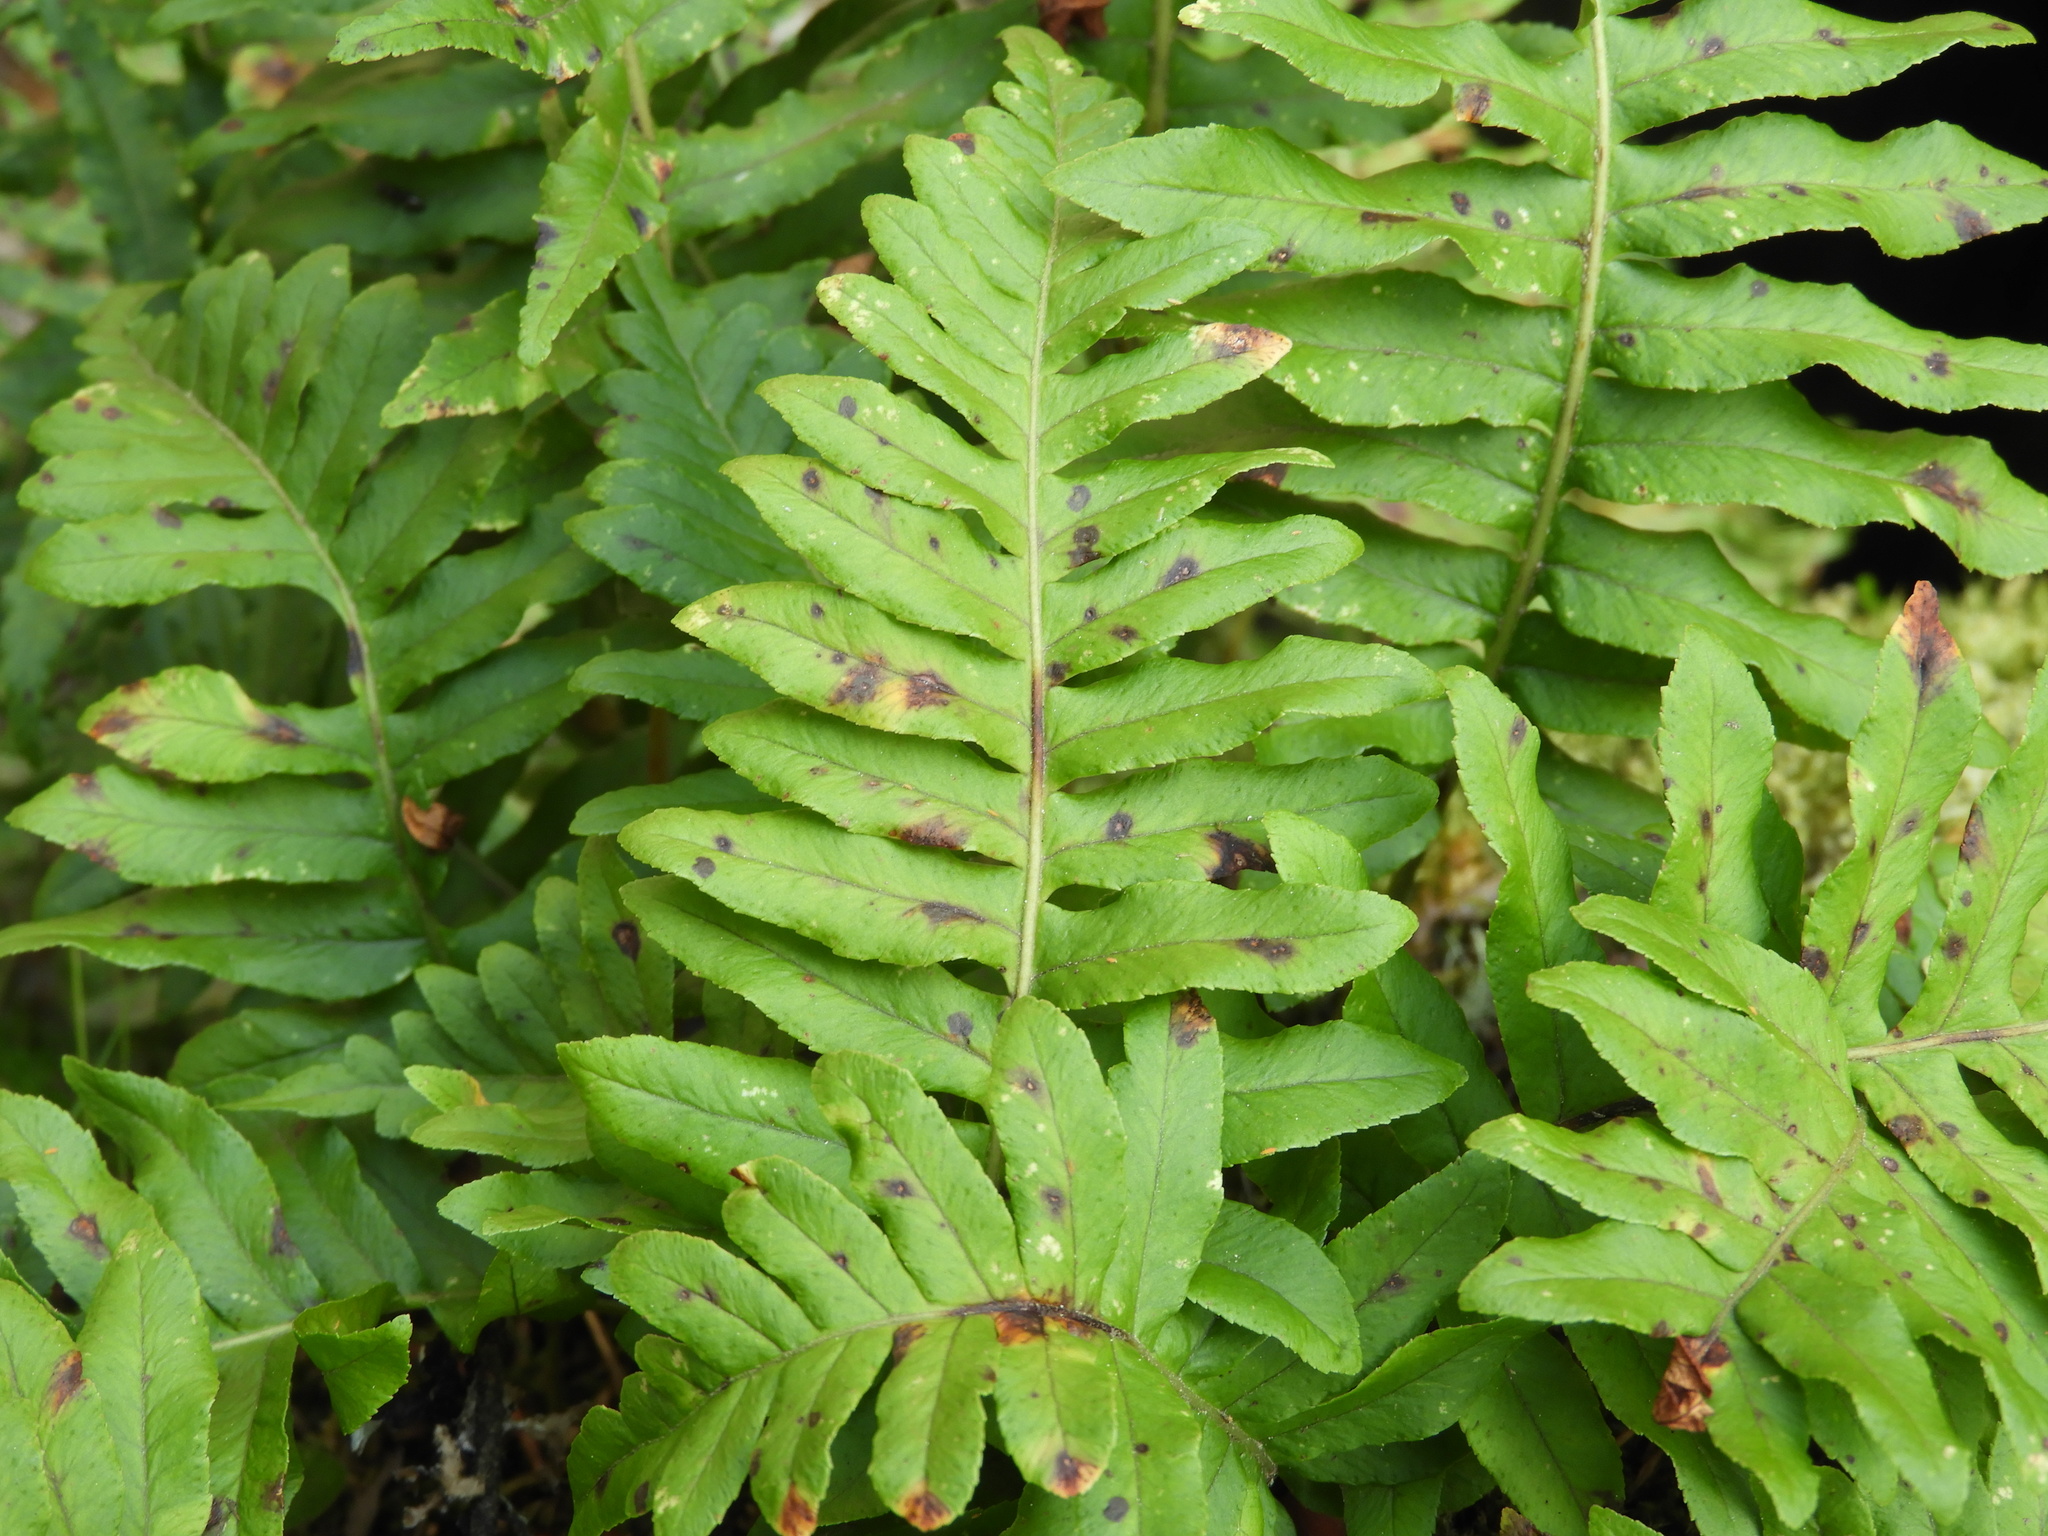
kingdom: Plantae
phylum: Tracheophyta
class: Polypodiopsida
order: Polypodiales
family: Polypodiaceae
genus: Polypodium
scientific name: Polypodium glycyrrhiza
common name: Licorice fern
